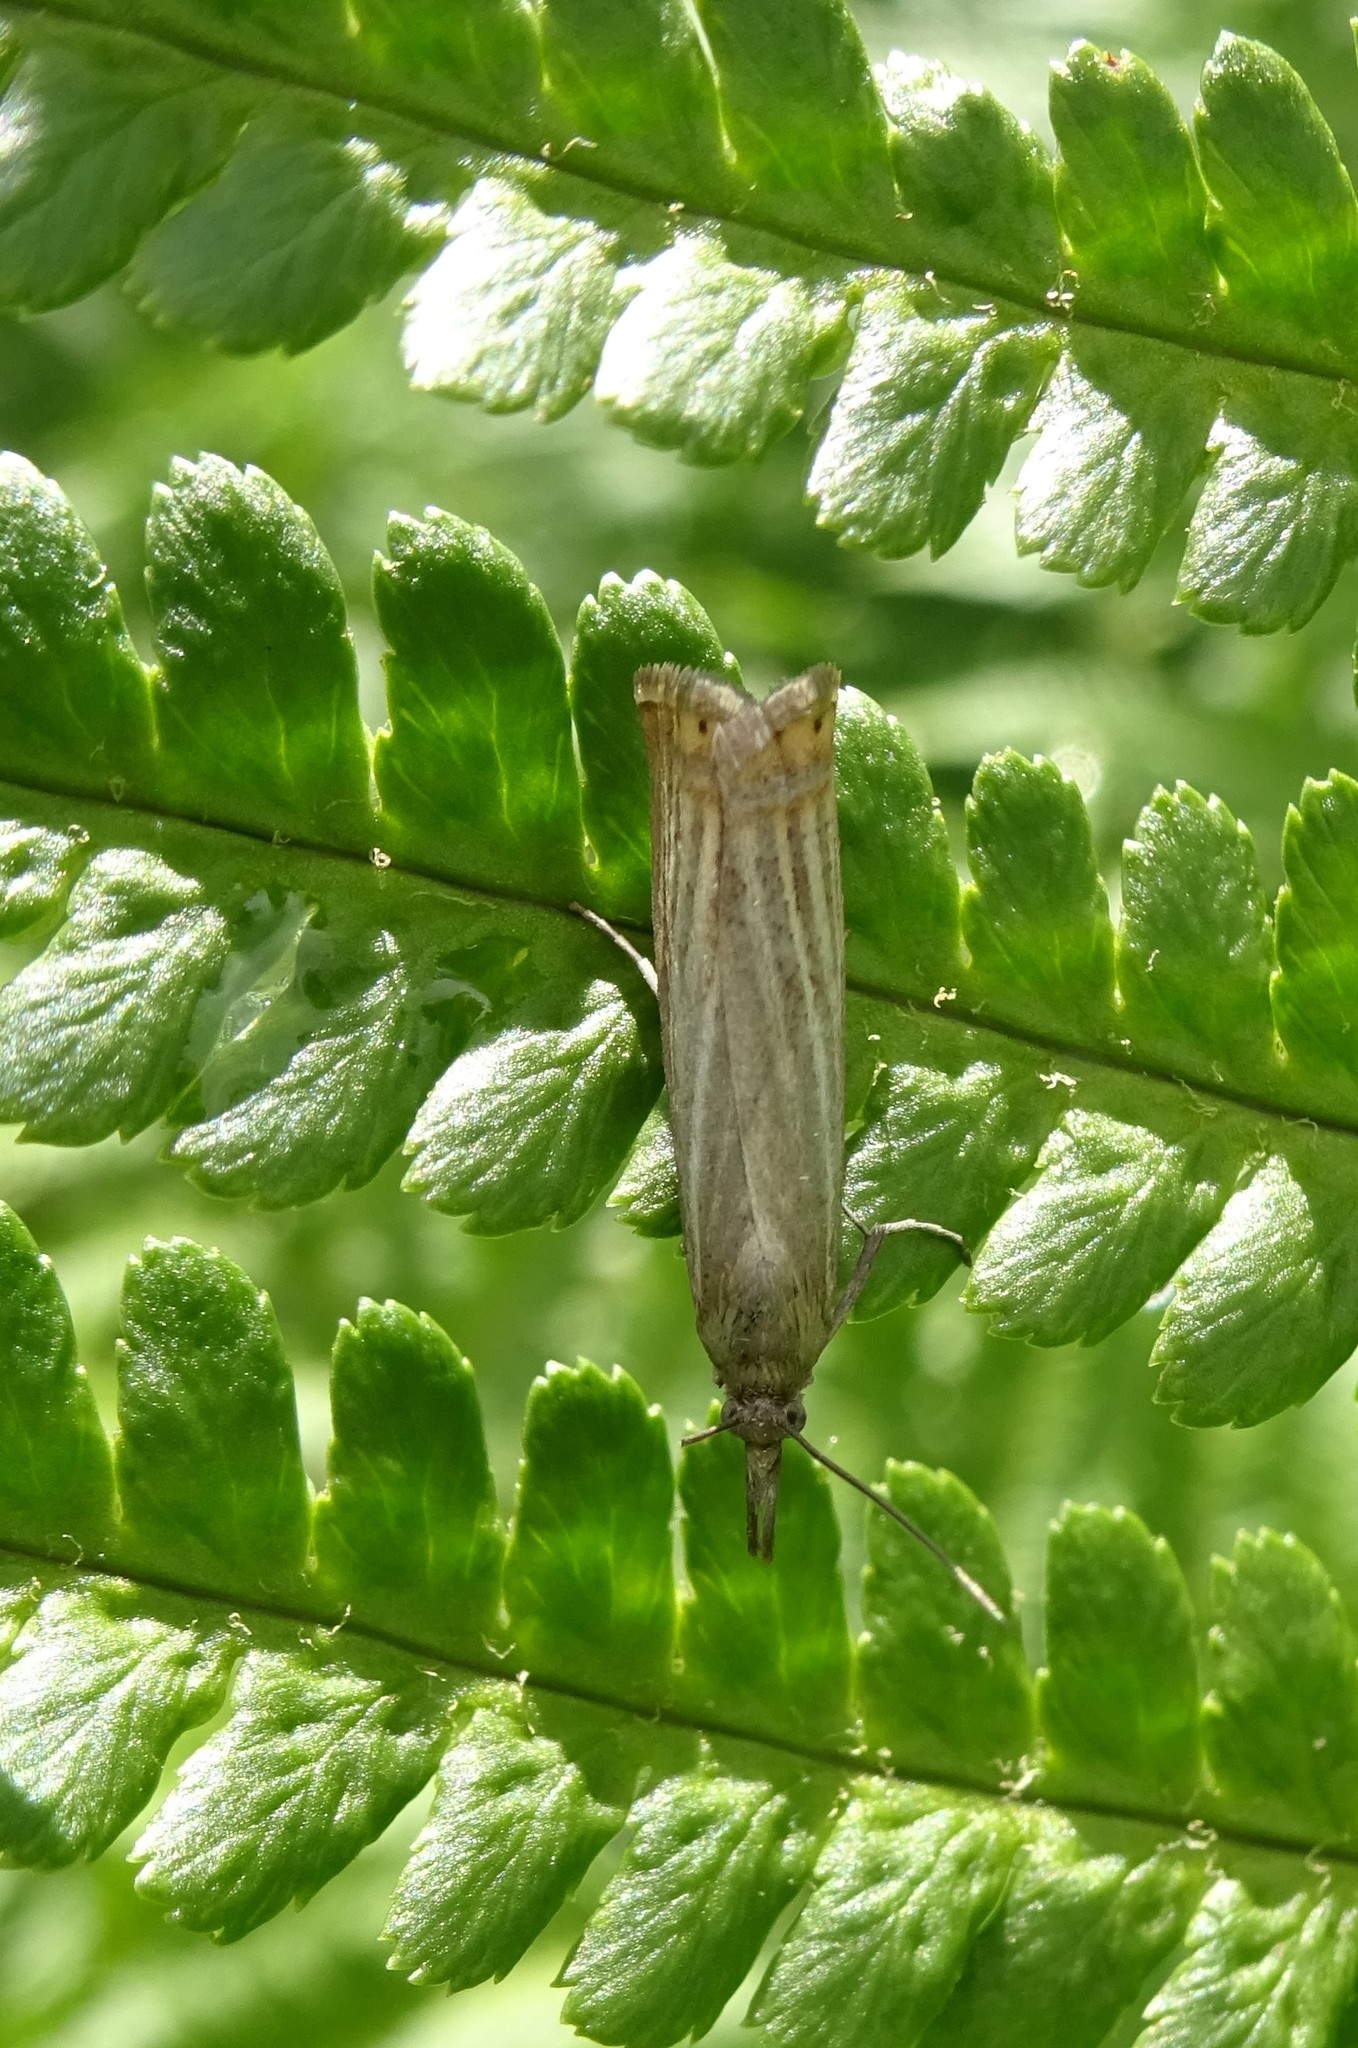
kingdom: Animalia
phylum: Arthropoda
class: Insecta
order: Lepidoptera
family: Crambidae
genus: Chrysoteuchia
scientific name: Chrysoteuchia culmella
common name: Garden grass-veneer
